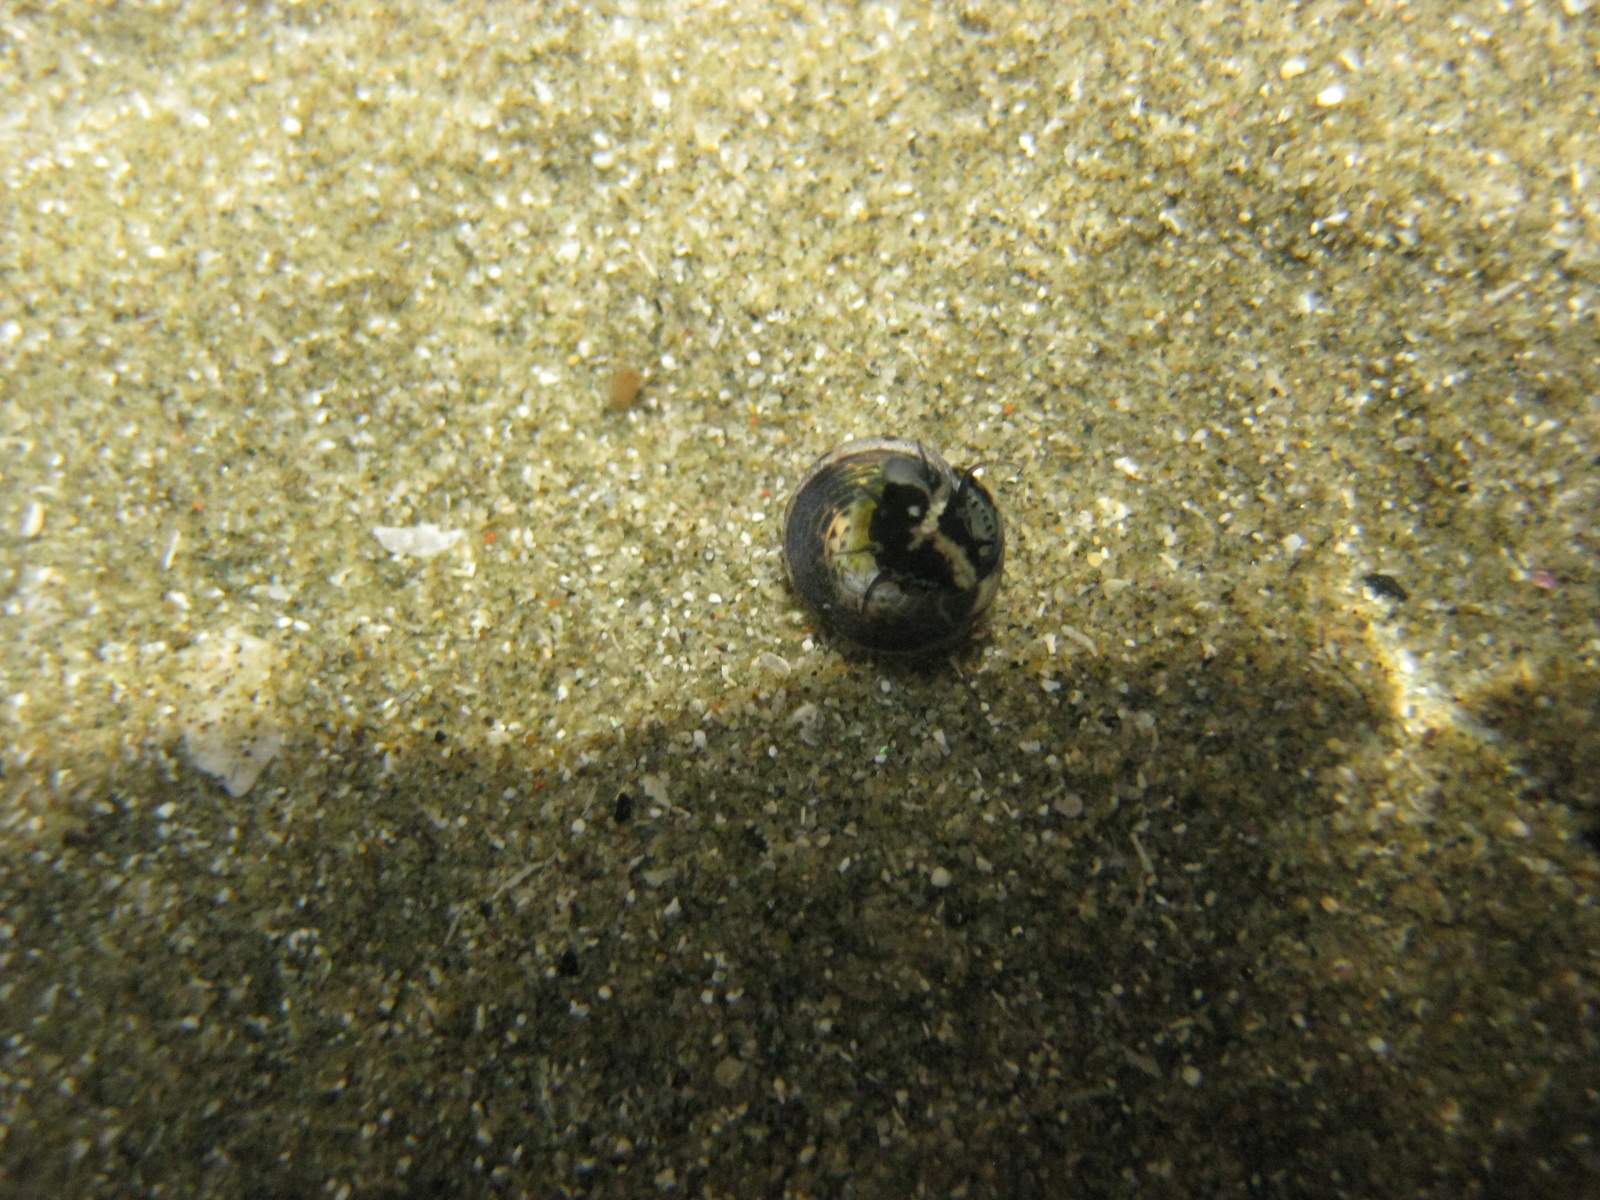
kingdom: Animalia
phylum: Mollusca
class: Gastropoda
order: Trochida
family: Trochidae
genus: Micrelenchus
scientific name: Micrelenchus tessellatus
